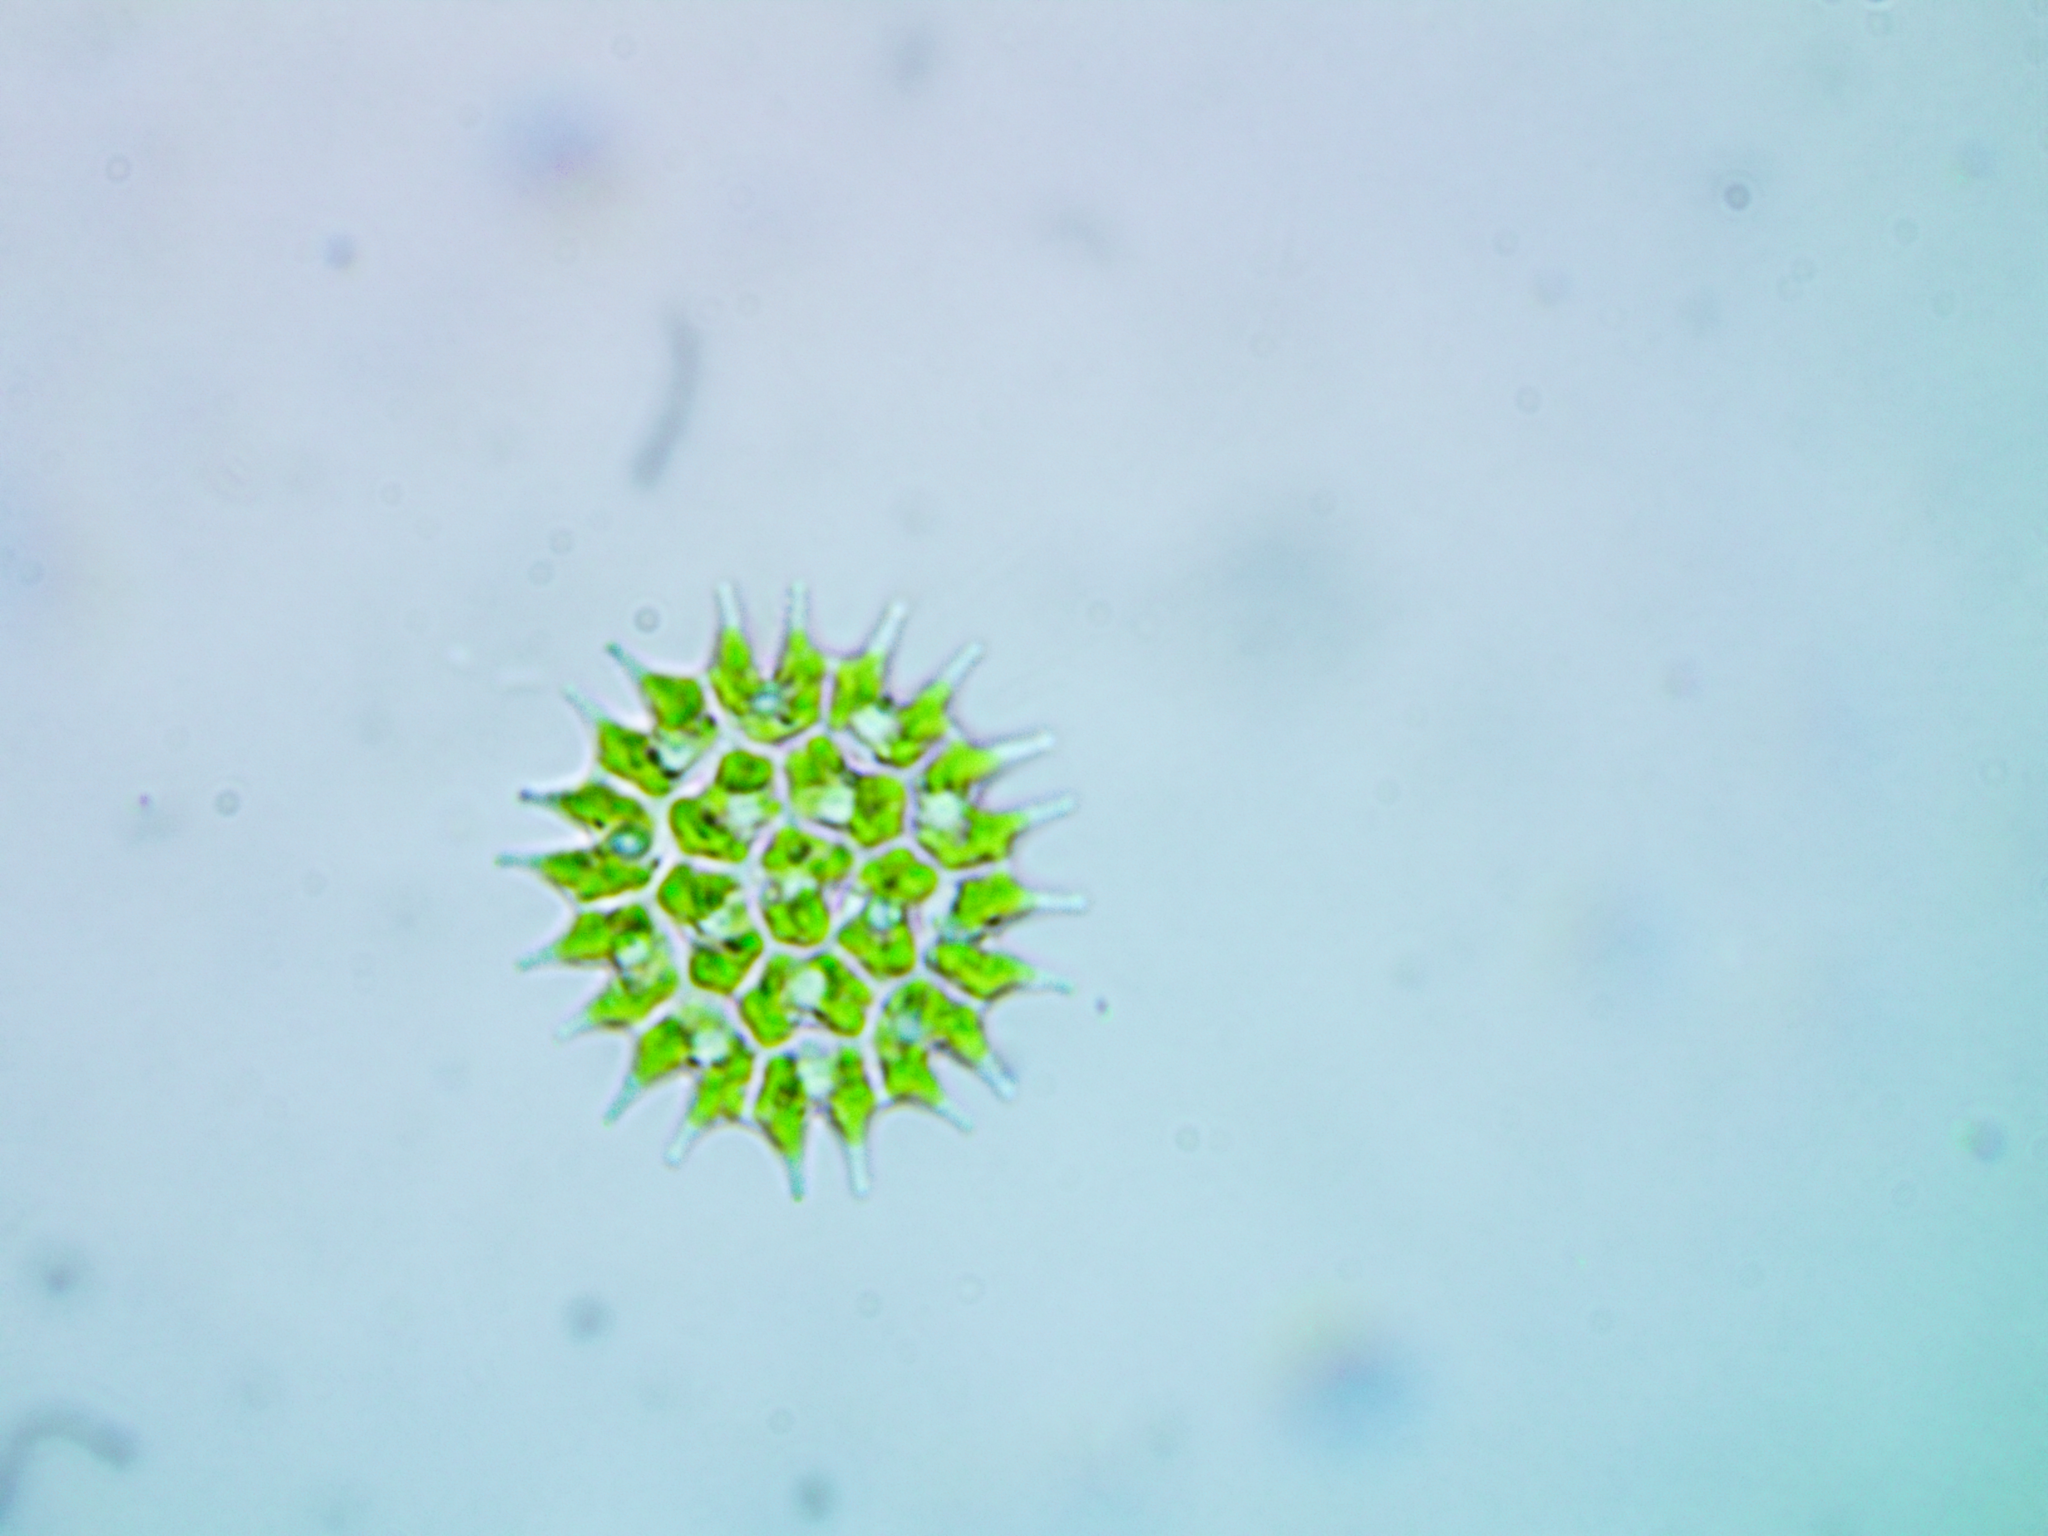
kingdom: Plantae
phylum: Chlorophyta
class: Chlorophyceae
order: Sphaeropleales
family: Hydrodictyaceae
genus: Pseudopediastrum
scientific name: Pseudopediastrum boryanum
